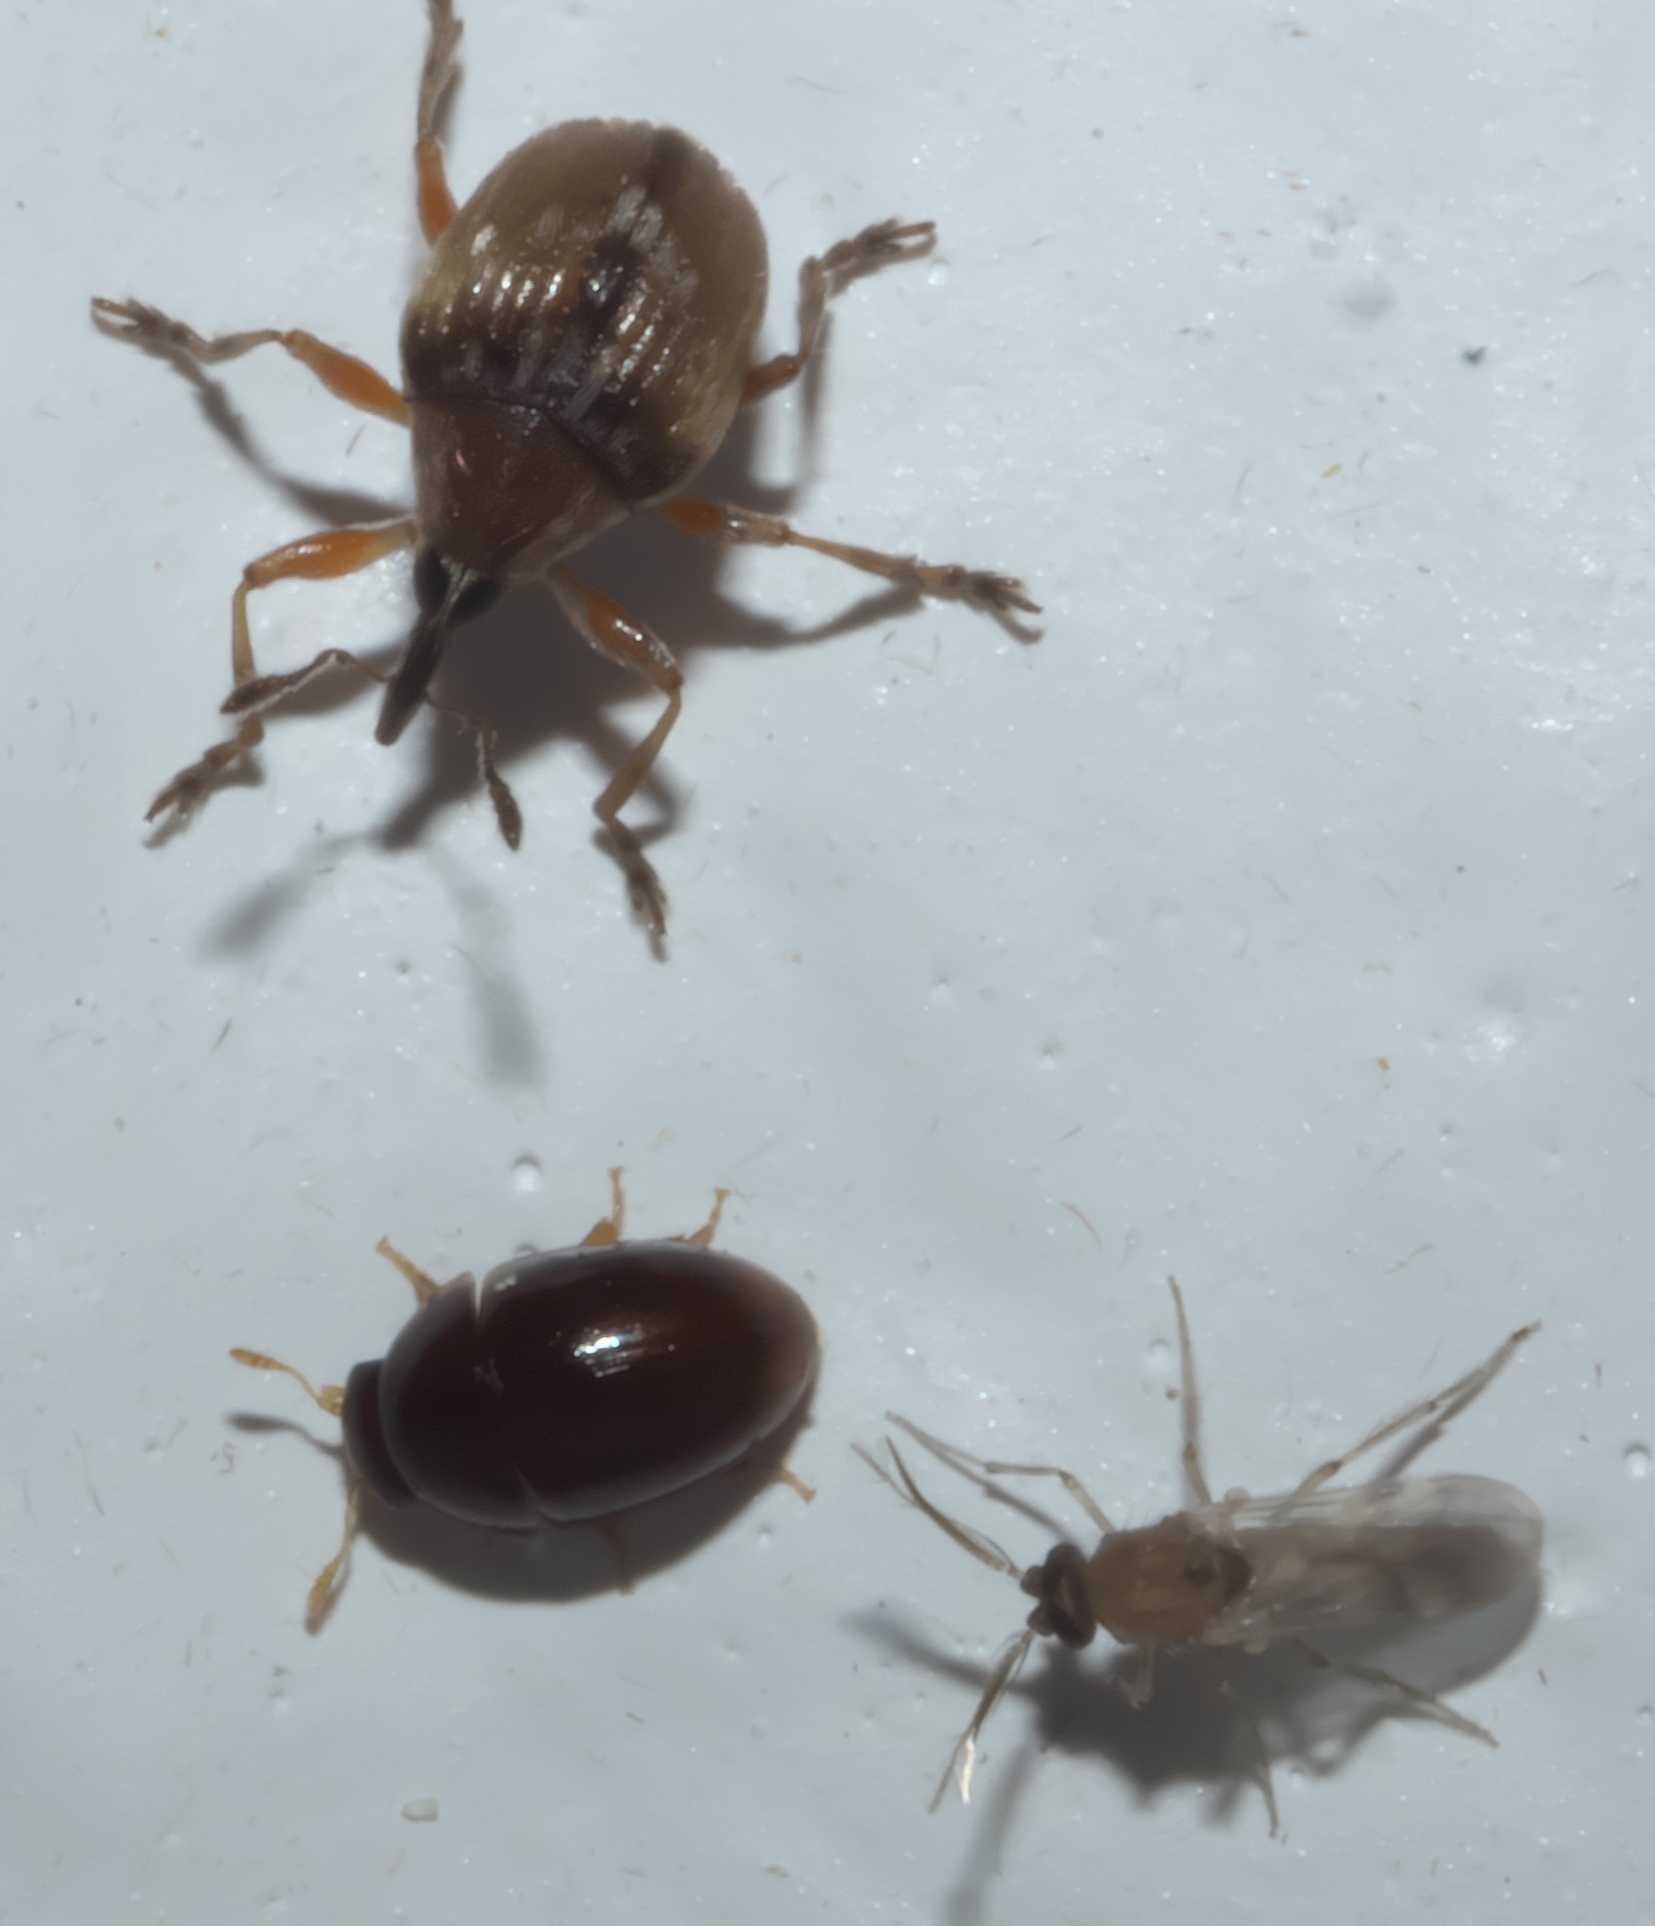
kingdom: Animalia
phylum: Arthropoda
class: Insecta
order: Coleoptera
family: Brentidae
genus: Nanodactylus
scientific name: Nanodactylus
